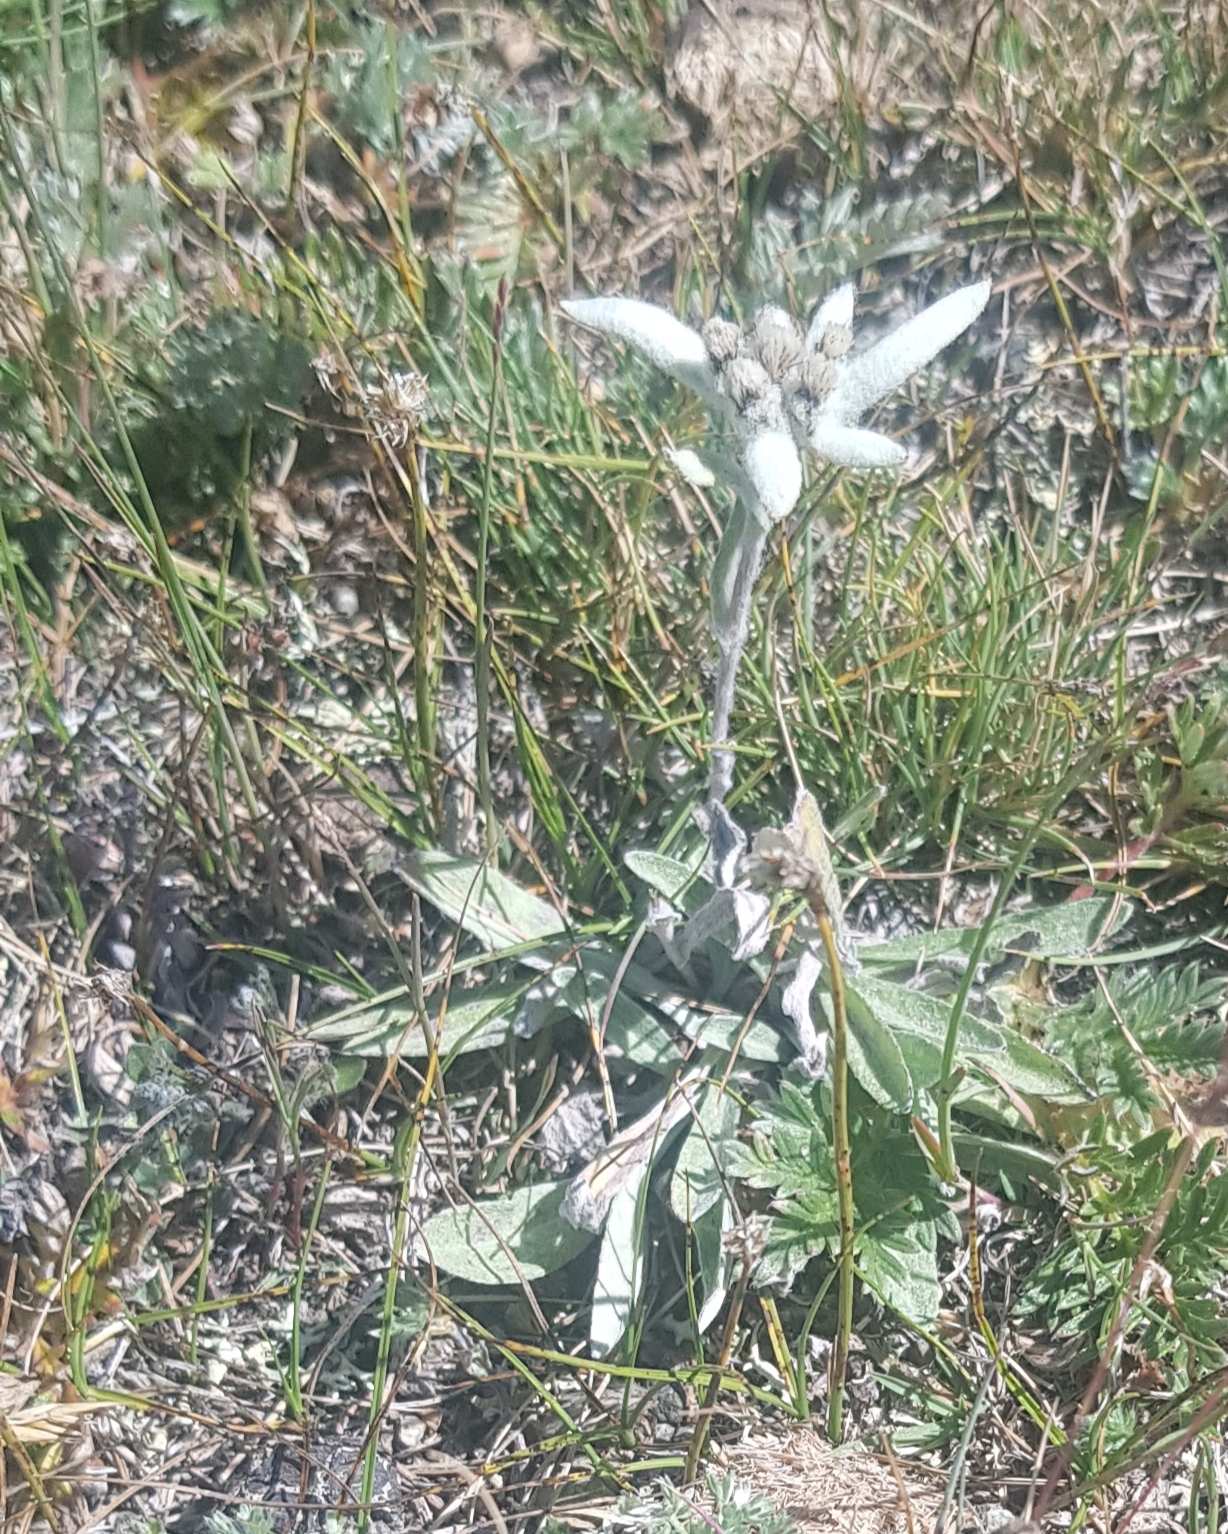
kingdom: Plantae
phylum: Tracheophyta
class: Magnoliopsida
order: Asterales
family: Asteraceae
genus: Leontopodium
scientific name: Leontopodium leontopodioides
